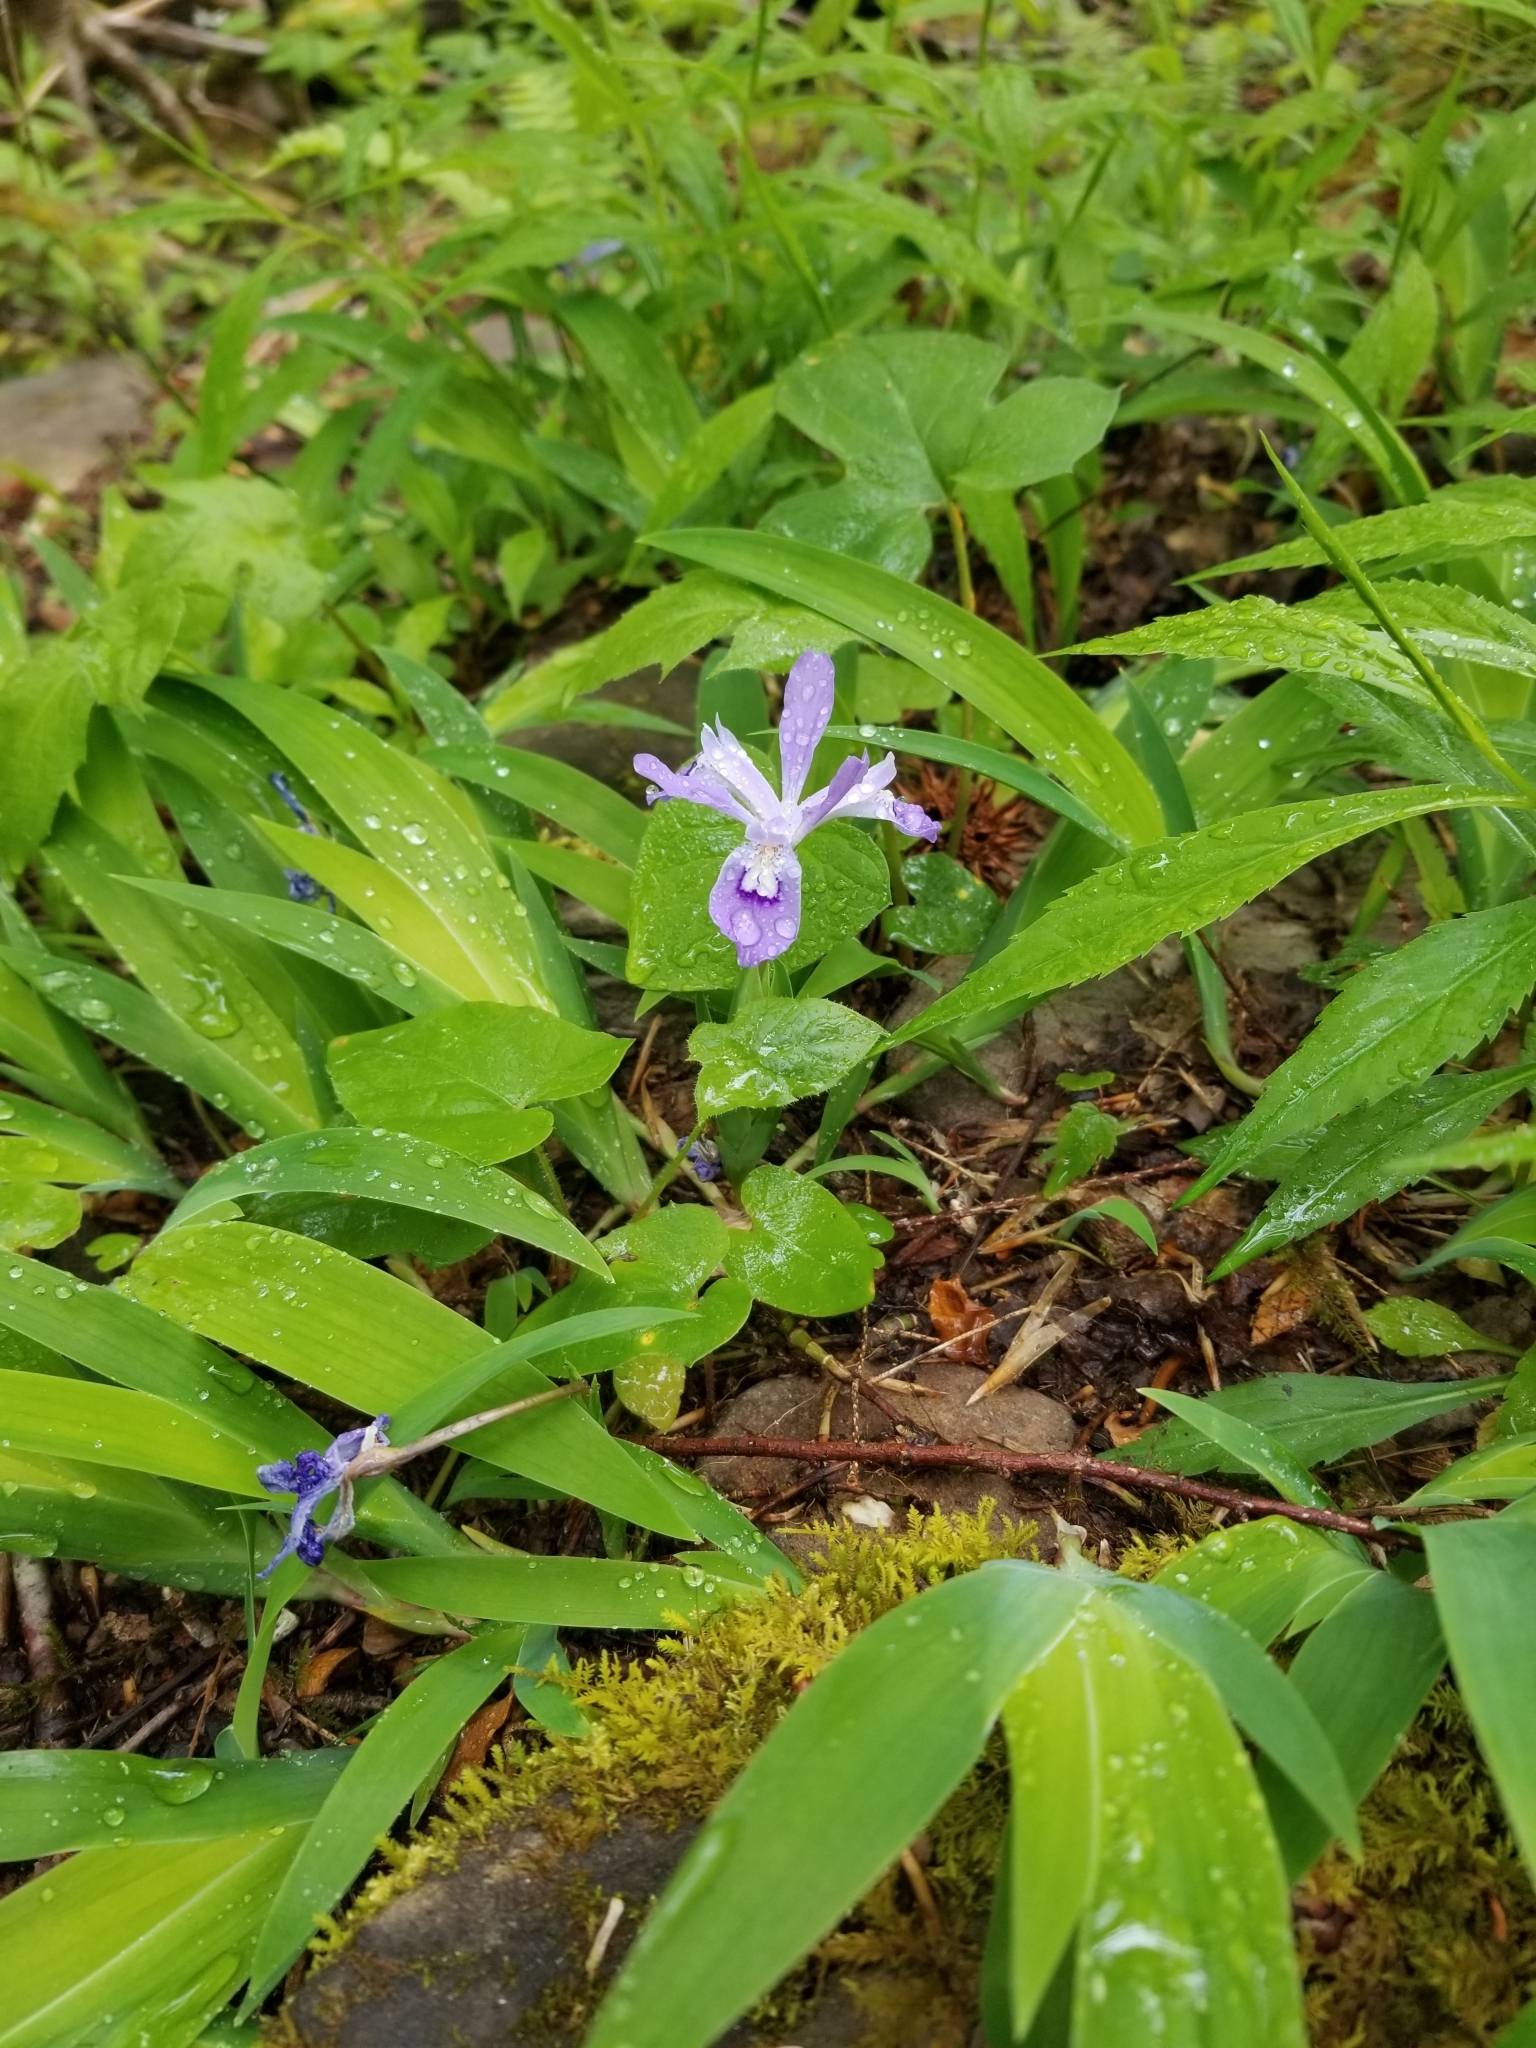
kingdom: Plantae
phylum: Tracheophyta
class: Liliopsida
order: Asparagales
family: Iridaceae
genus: Iris
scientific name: Iris cristata
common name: Crested iris
